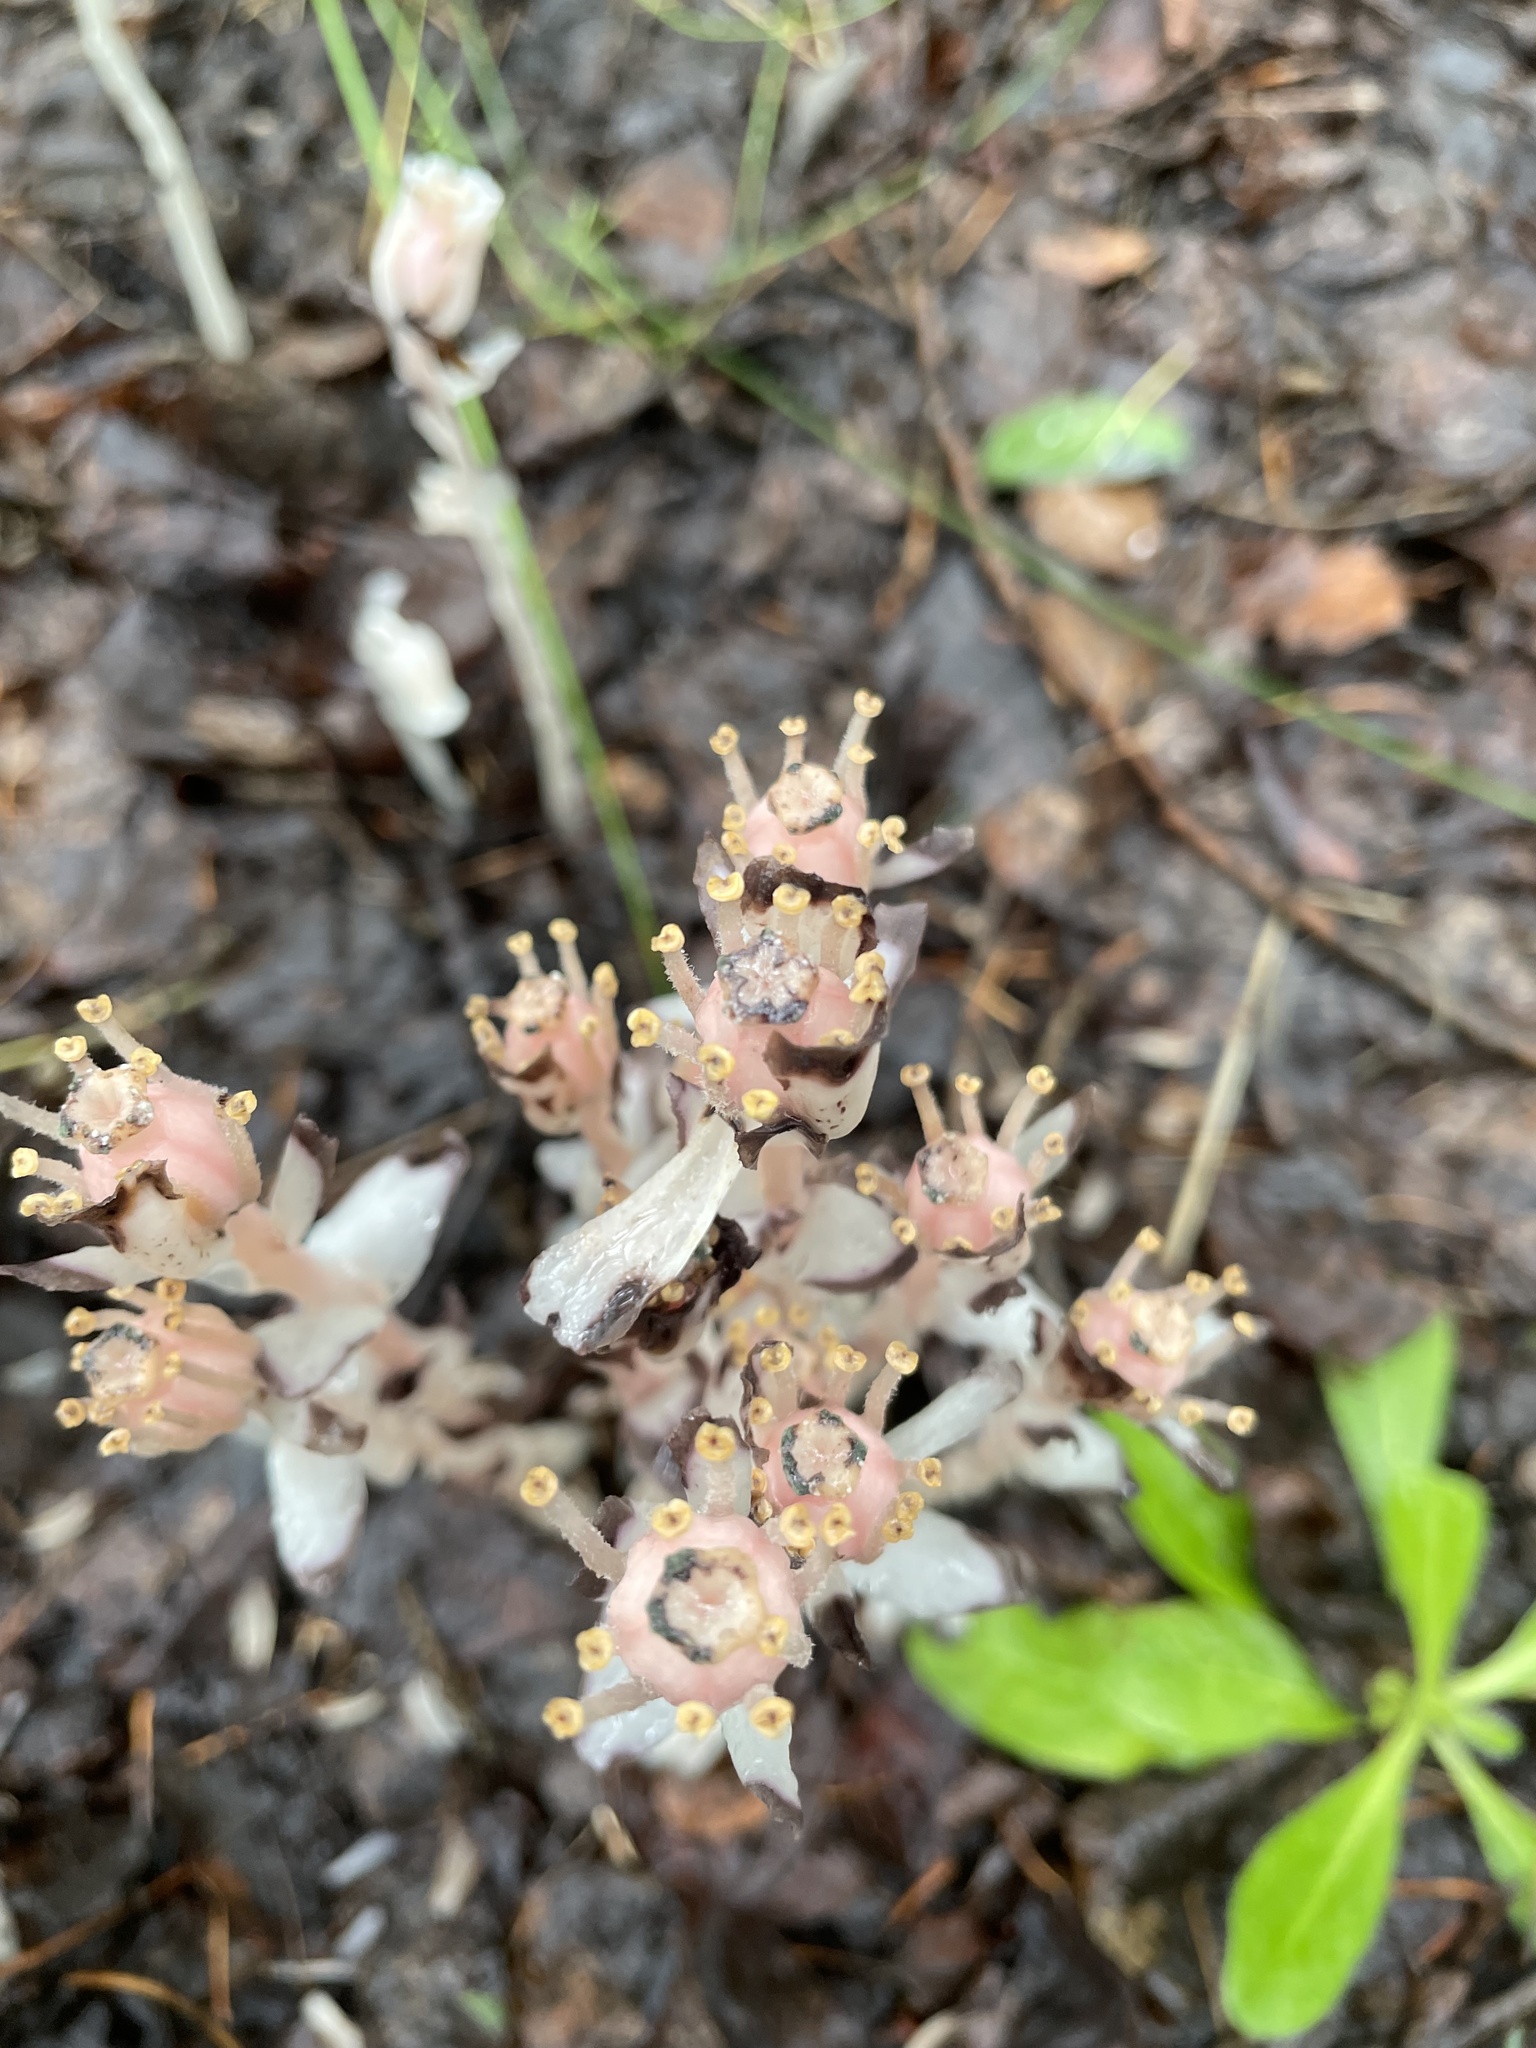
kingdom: Plantae
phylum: Tracheophyta
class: Magnoliopsida
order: Ericales
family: Ericaceae
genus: Monotropa
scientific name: Monotropa uniflora
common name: Convulsion root
